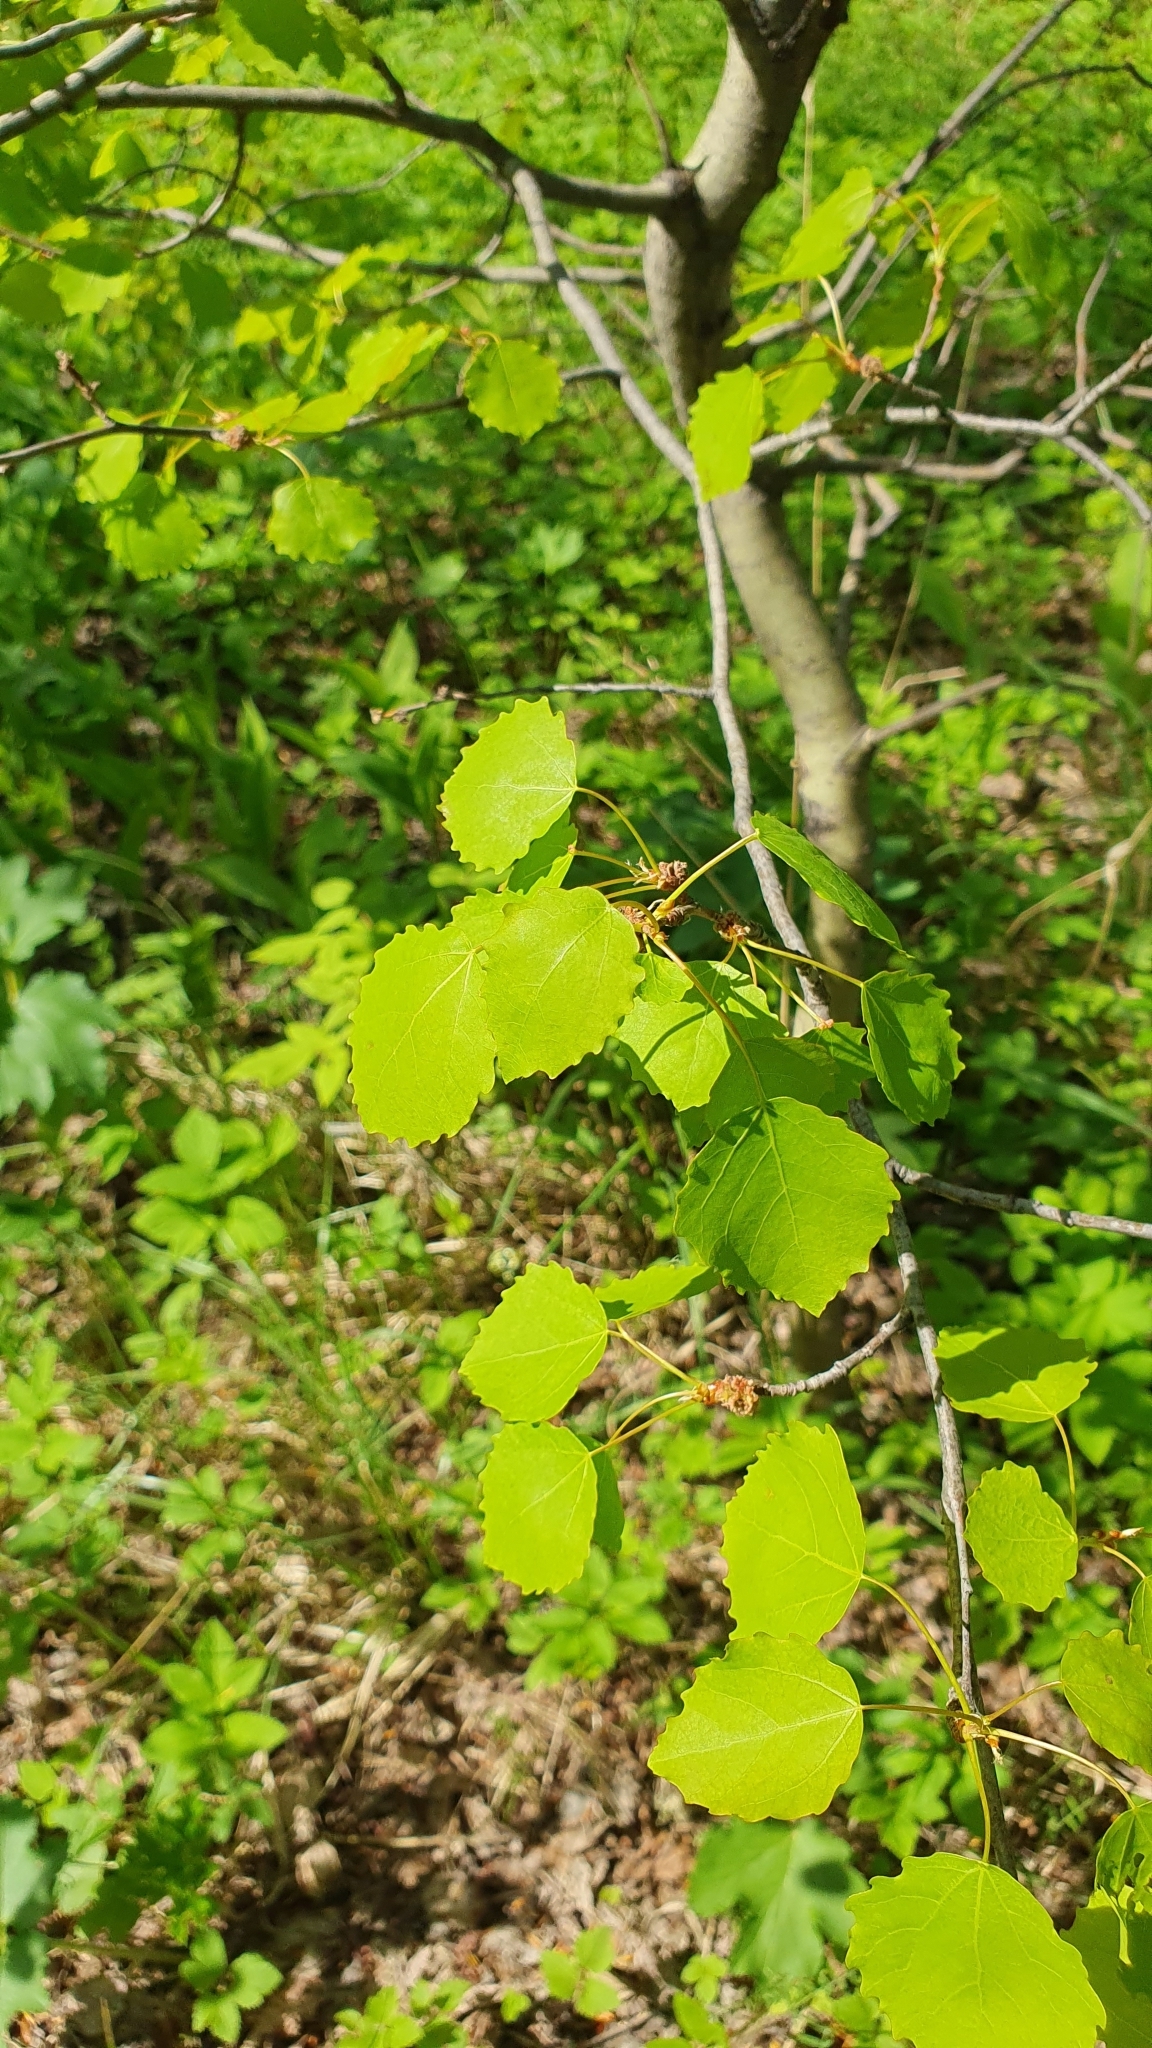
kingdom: Plantae
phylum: Tracheophyta
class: Magnoliopsida
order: Malpighiales
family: Salicaceae
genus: Populus
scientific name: Populus tremula
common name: European aspen
